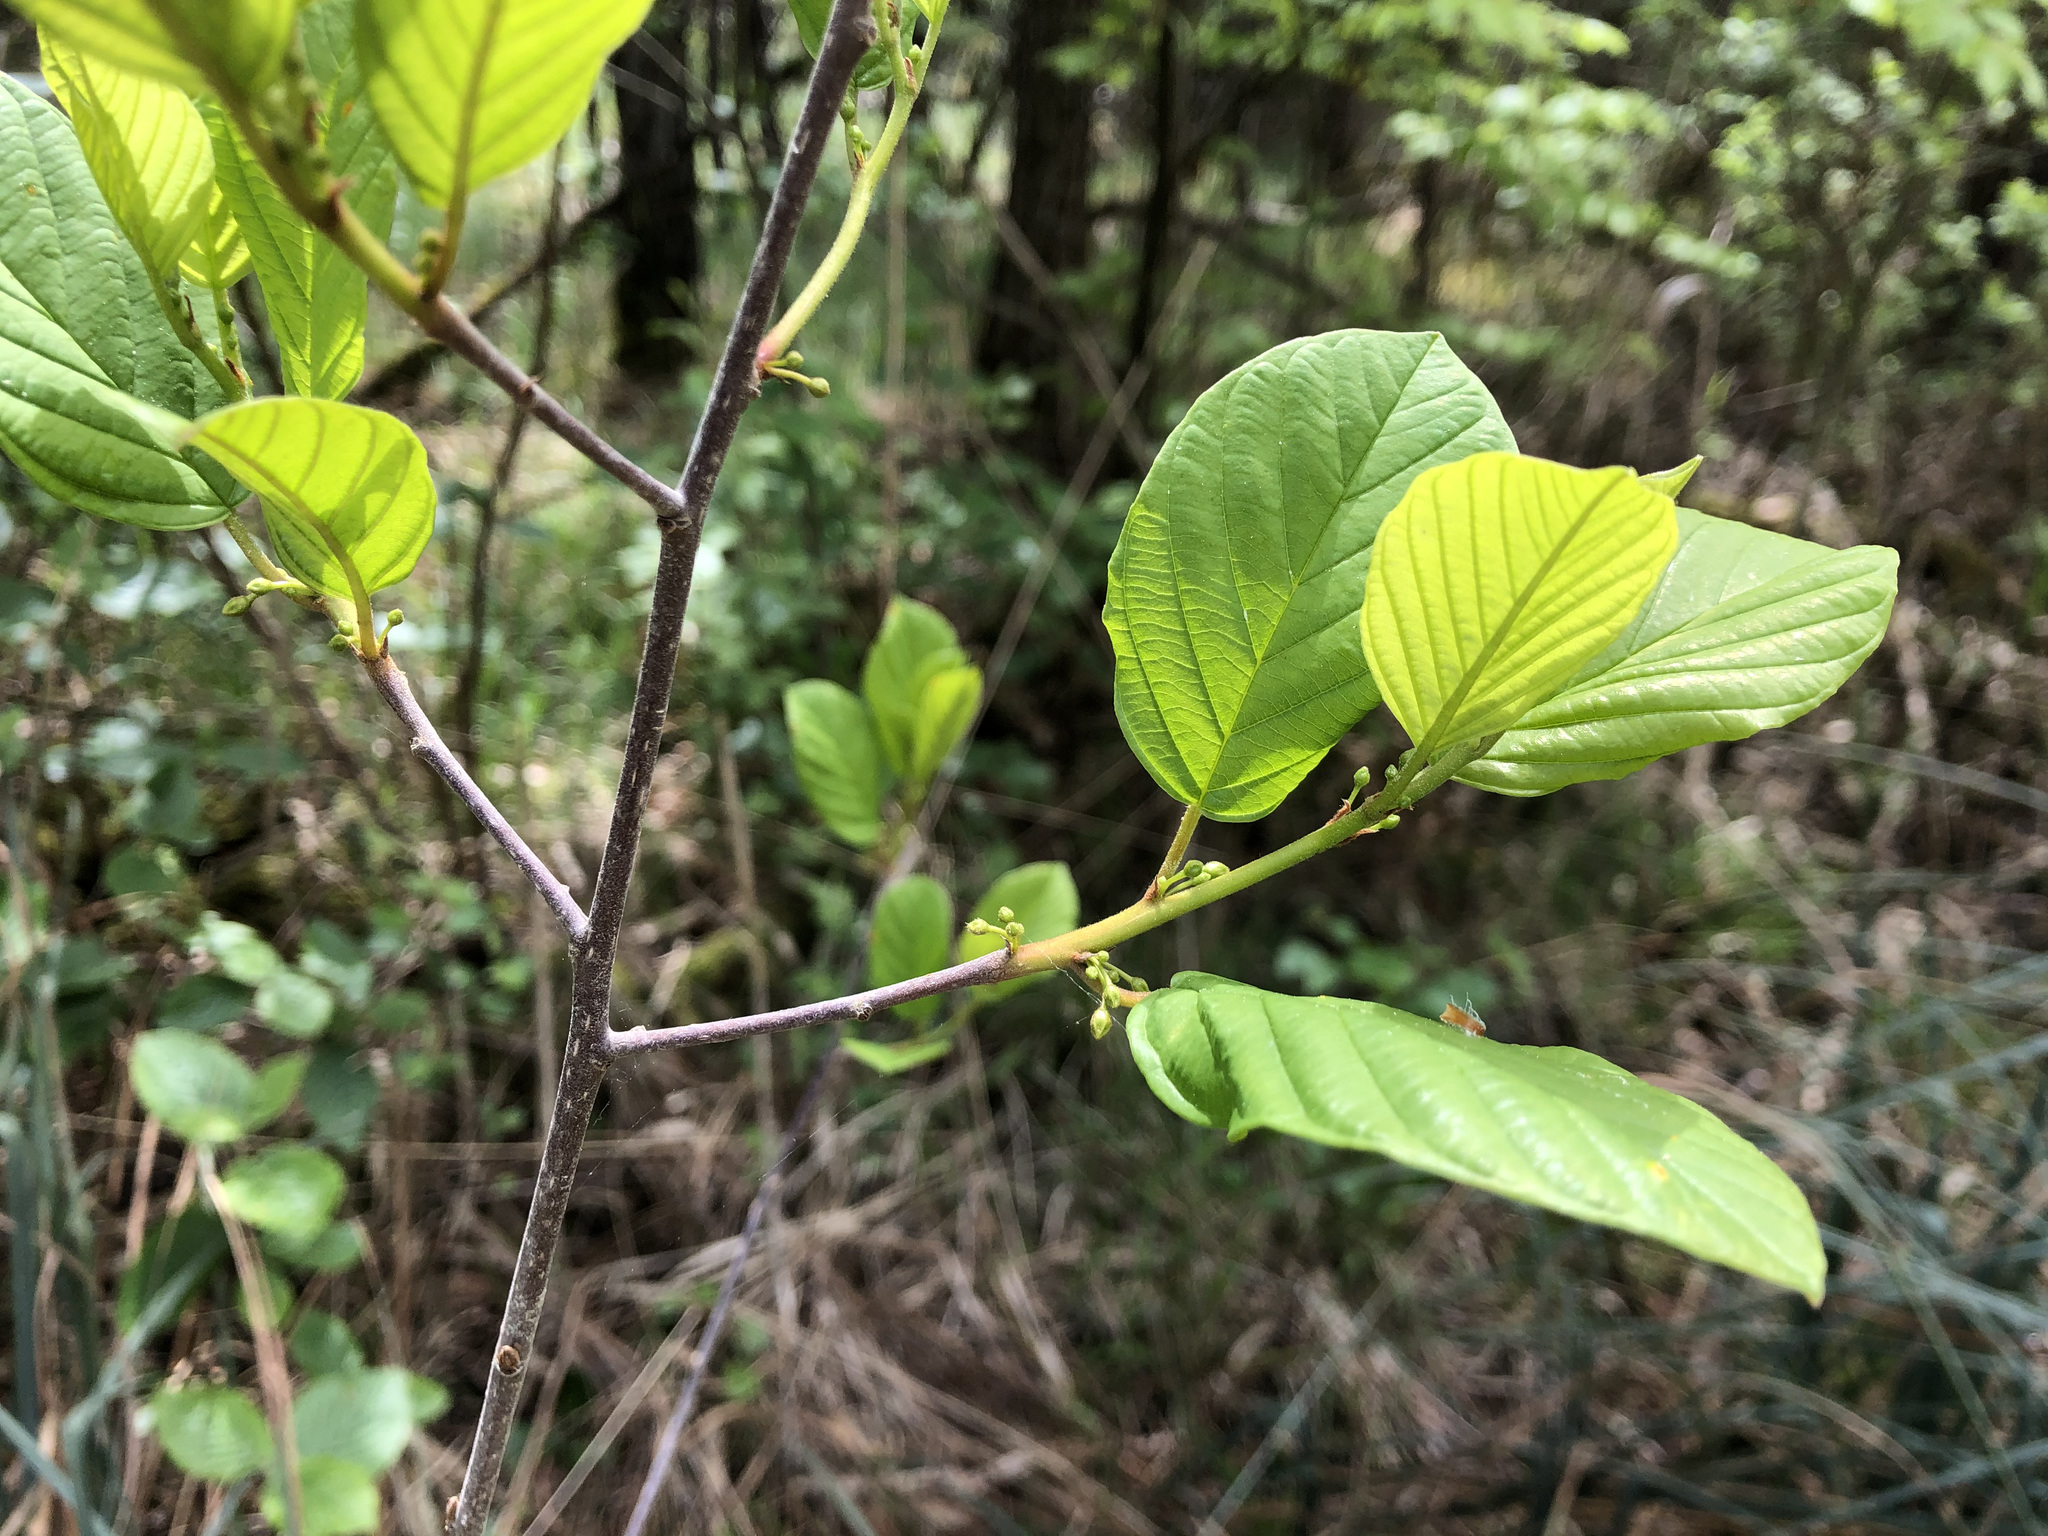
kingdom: Plantae
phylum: Tracheophyta
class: Magnoliopsida
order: Rosales
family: Rhamnaceae
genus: Frangula
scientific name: Frangula alnus
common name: Alder buckthorn
